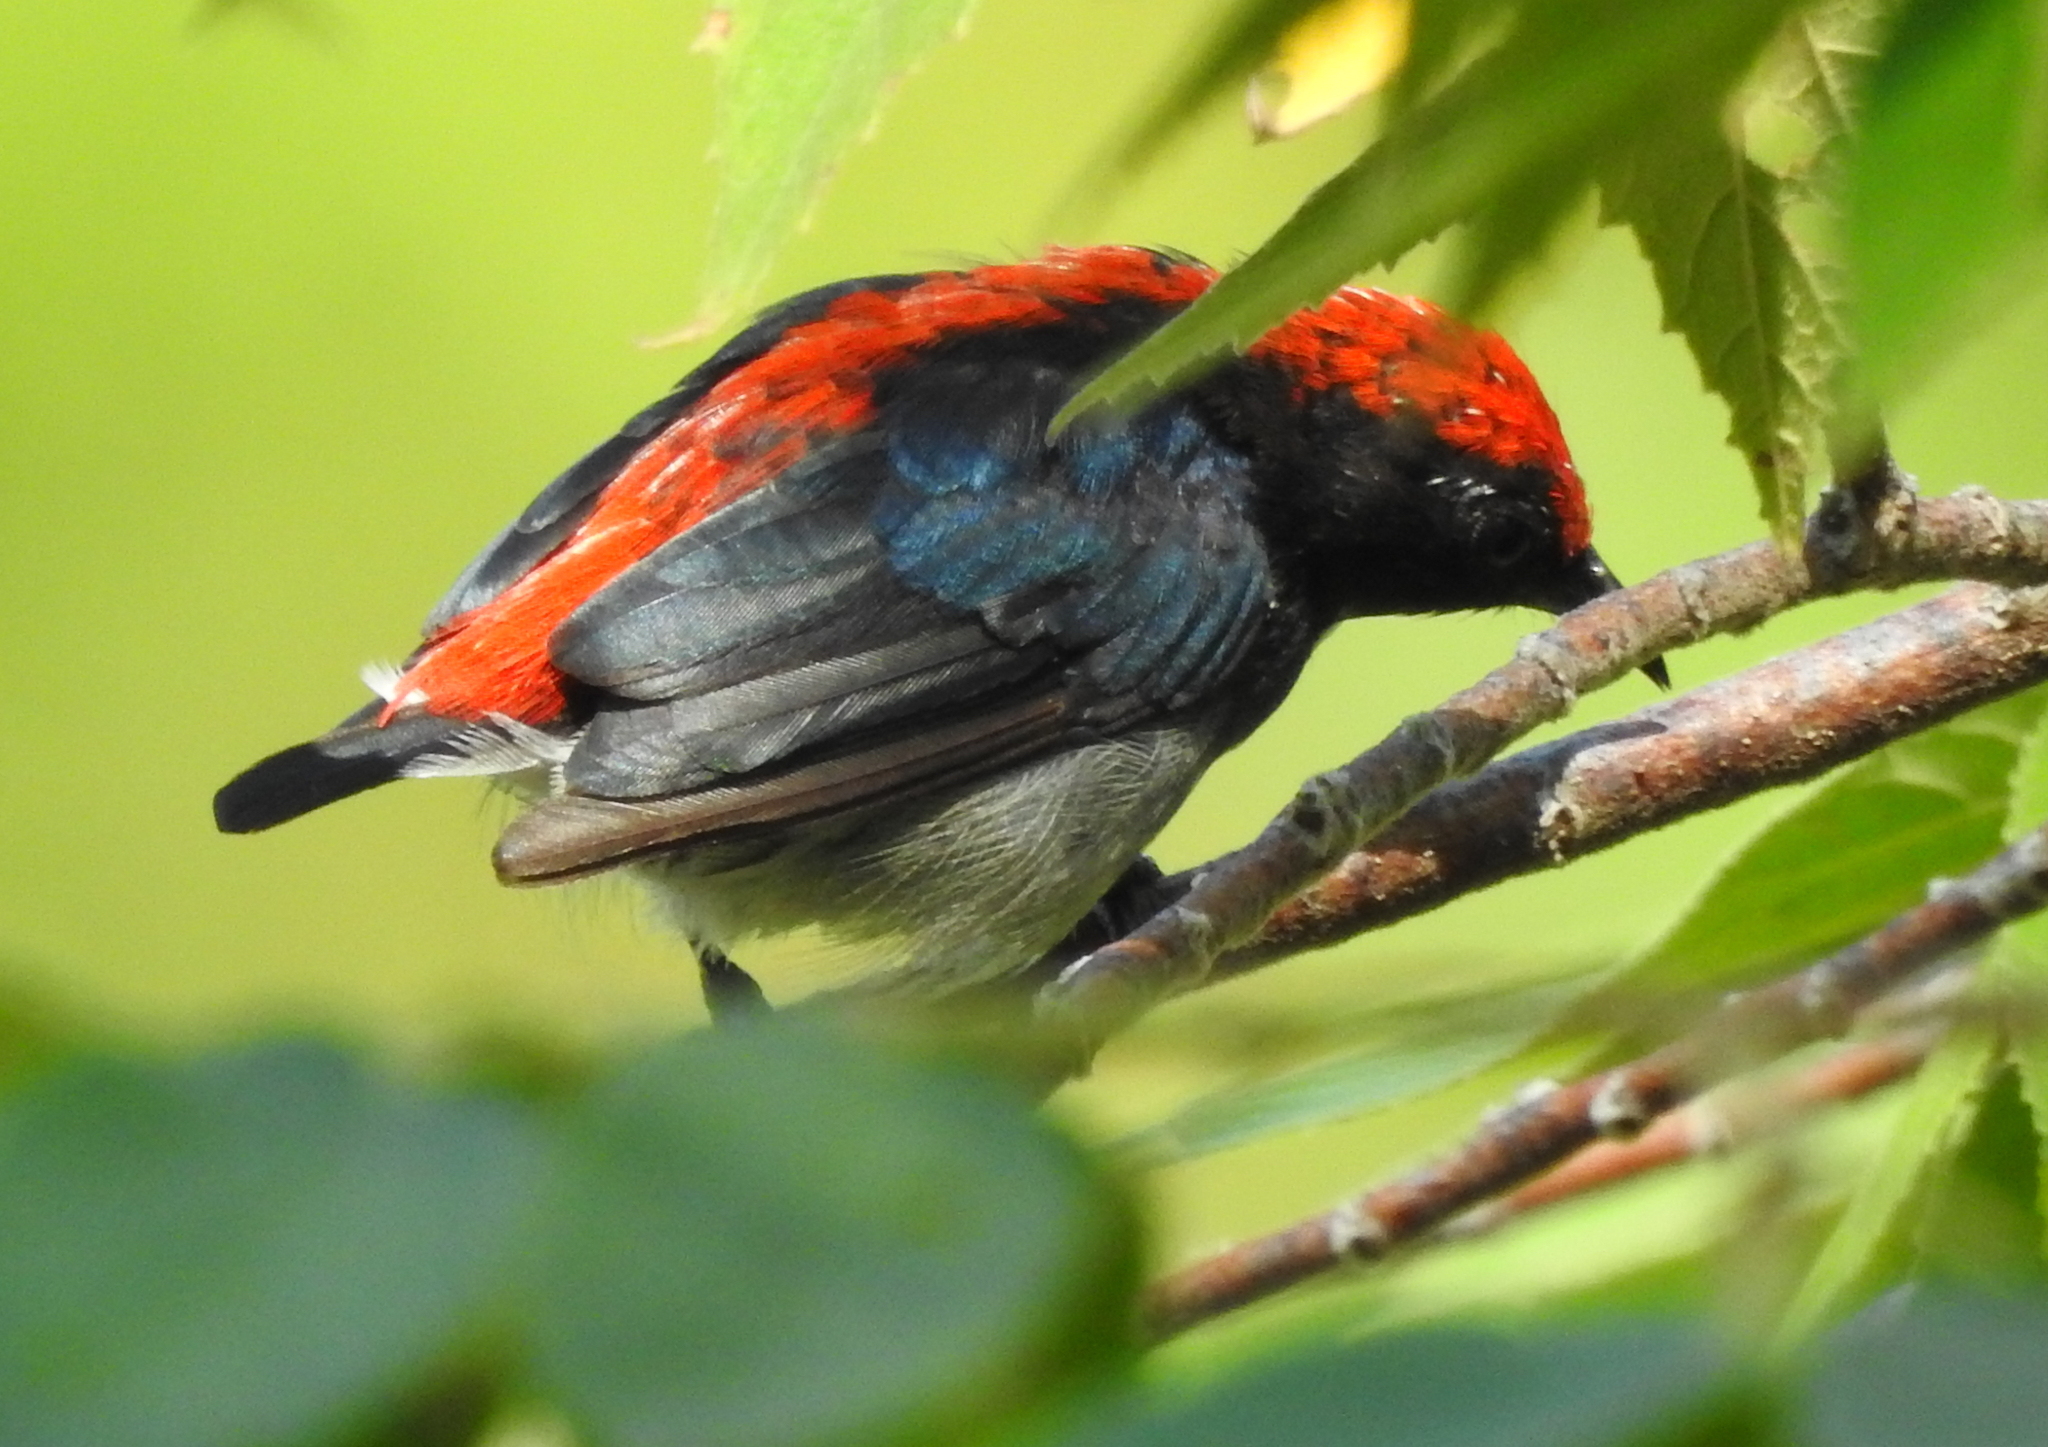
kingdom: Animalia
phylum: Chordata
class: Aves
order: Passeriformes
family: Dicaeidae
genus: Dicaeum
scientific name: Dicaeum cruentatum
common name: Scarlet-backed flowerpecker
